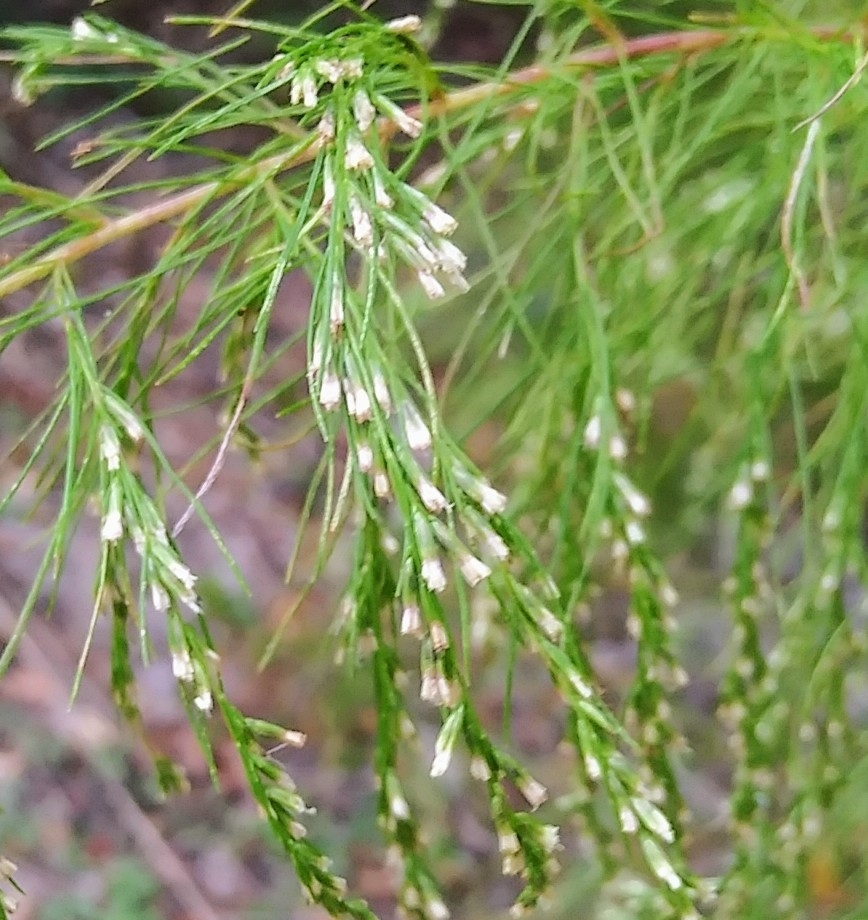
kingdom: Plantae
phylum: Tracheophyta
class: Magnoliopsida
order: Asterales
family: Asteraceae
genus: Eupatorium
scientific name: Eupatorium capillifolium
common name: Dog-fennel
